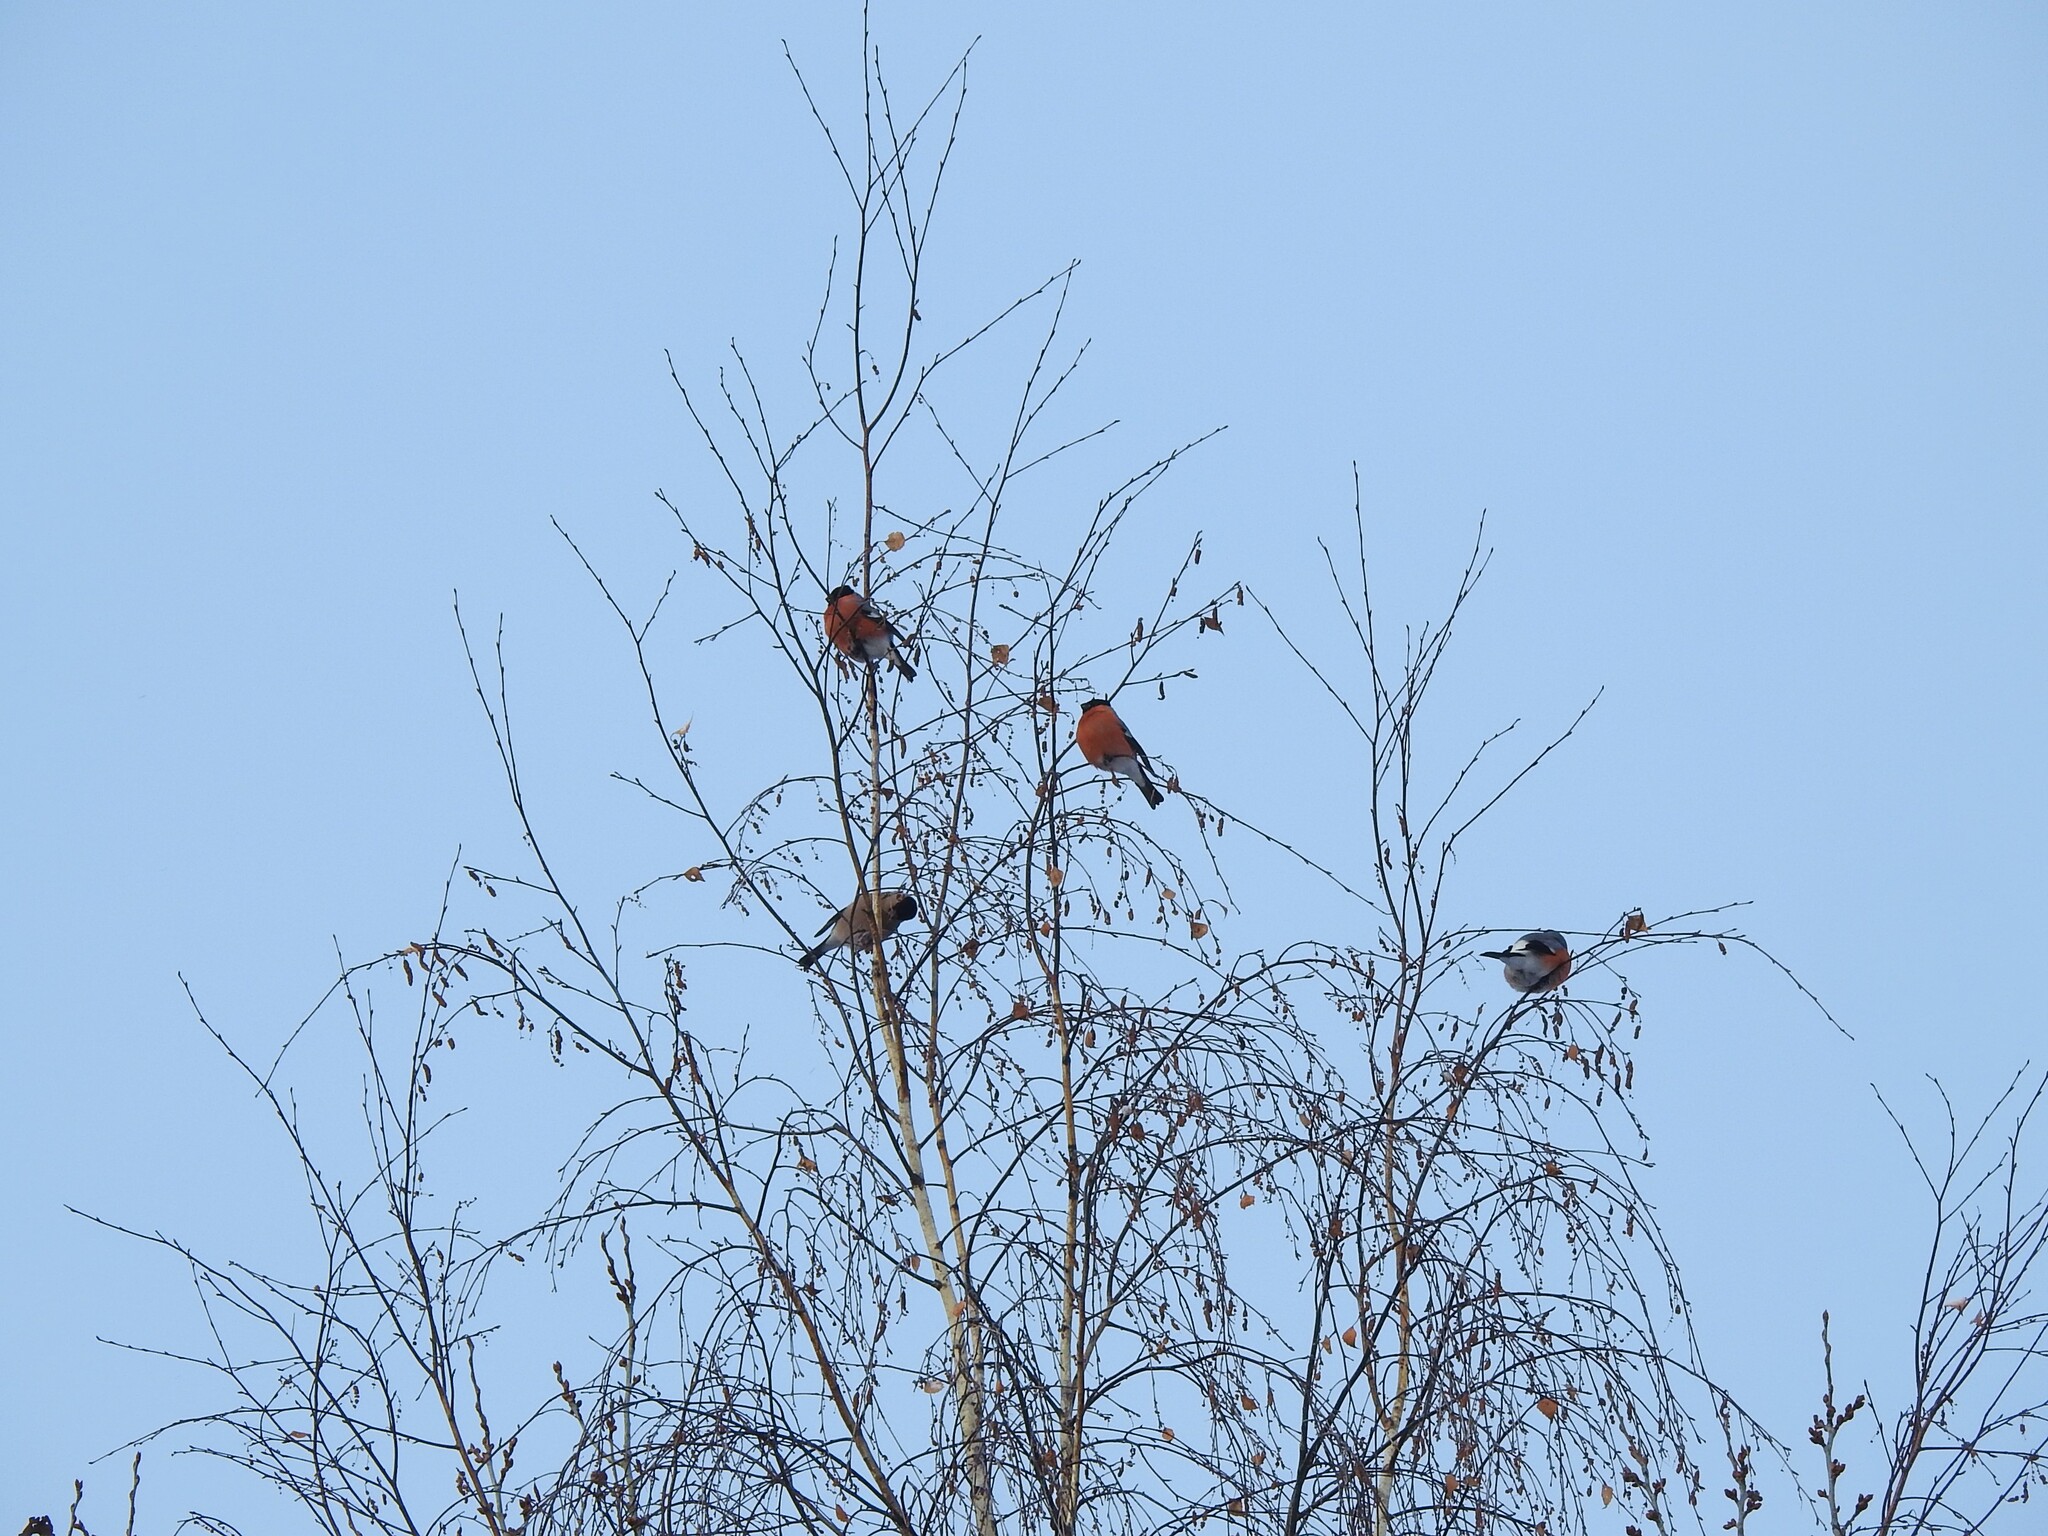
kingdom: Animalia
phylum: Chordata
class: Aves
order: Passeriformes
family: Fringillidae
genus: Pyrrhula
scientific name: Pyrrhula pyrrhula
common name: Eurasian bullfinch
